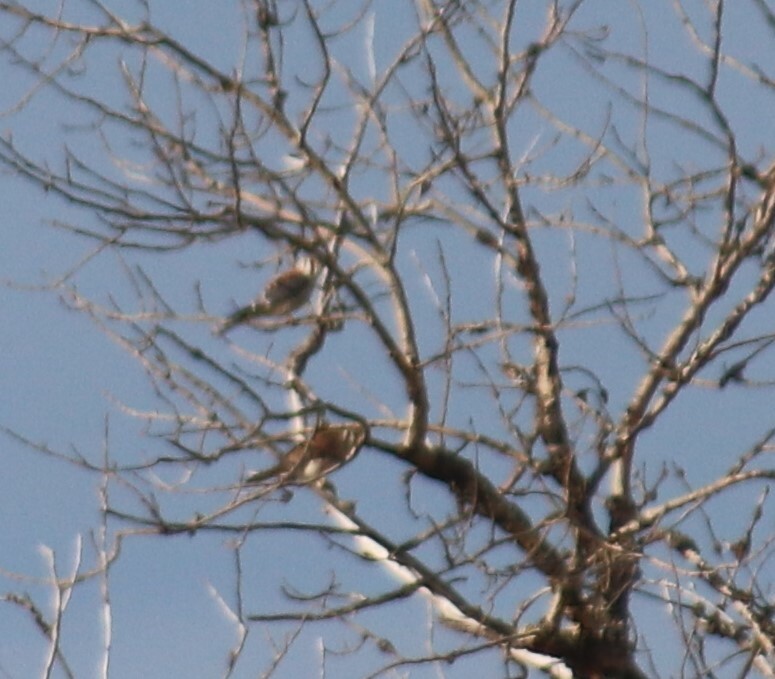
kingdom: Animalia
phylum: Chordata
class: Aves
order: Falconiformes
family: Falconidae
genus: Falco
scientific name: Falco sparverius
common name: American kestrel
